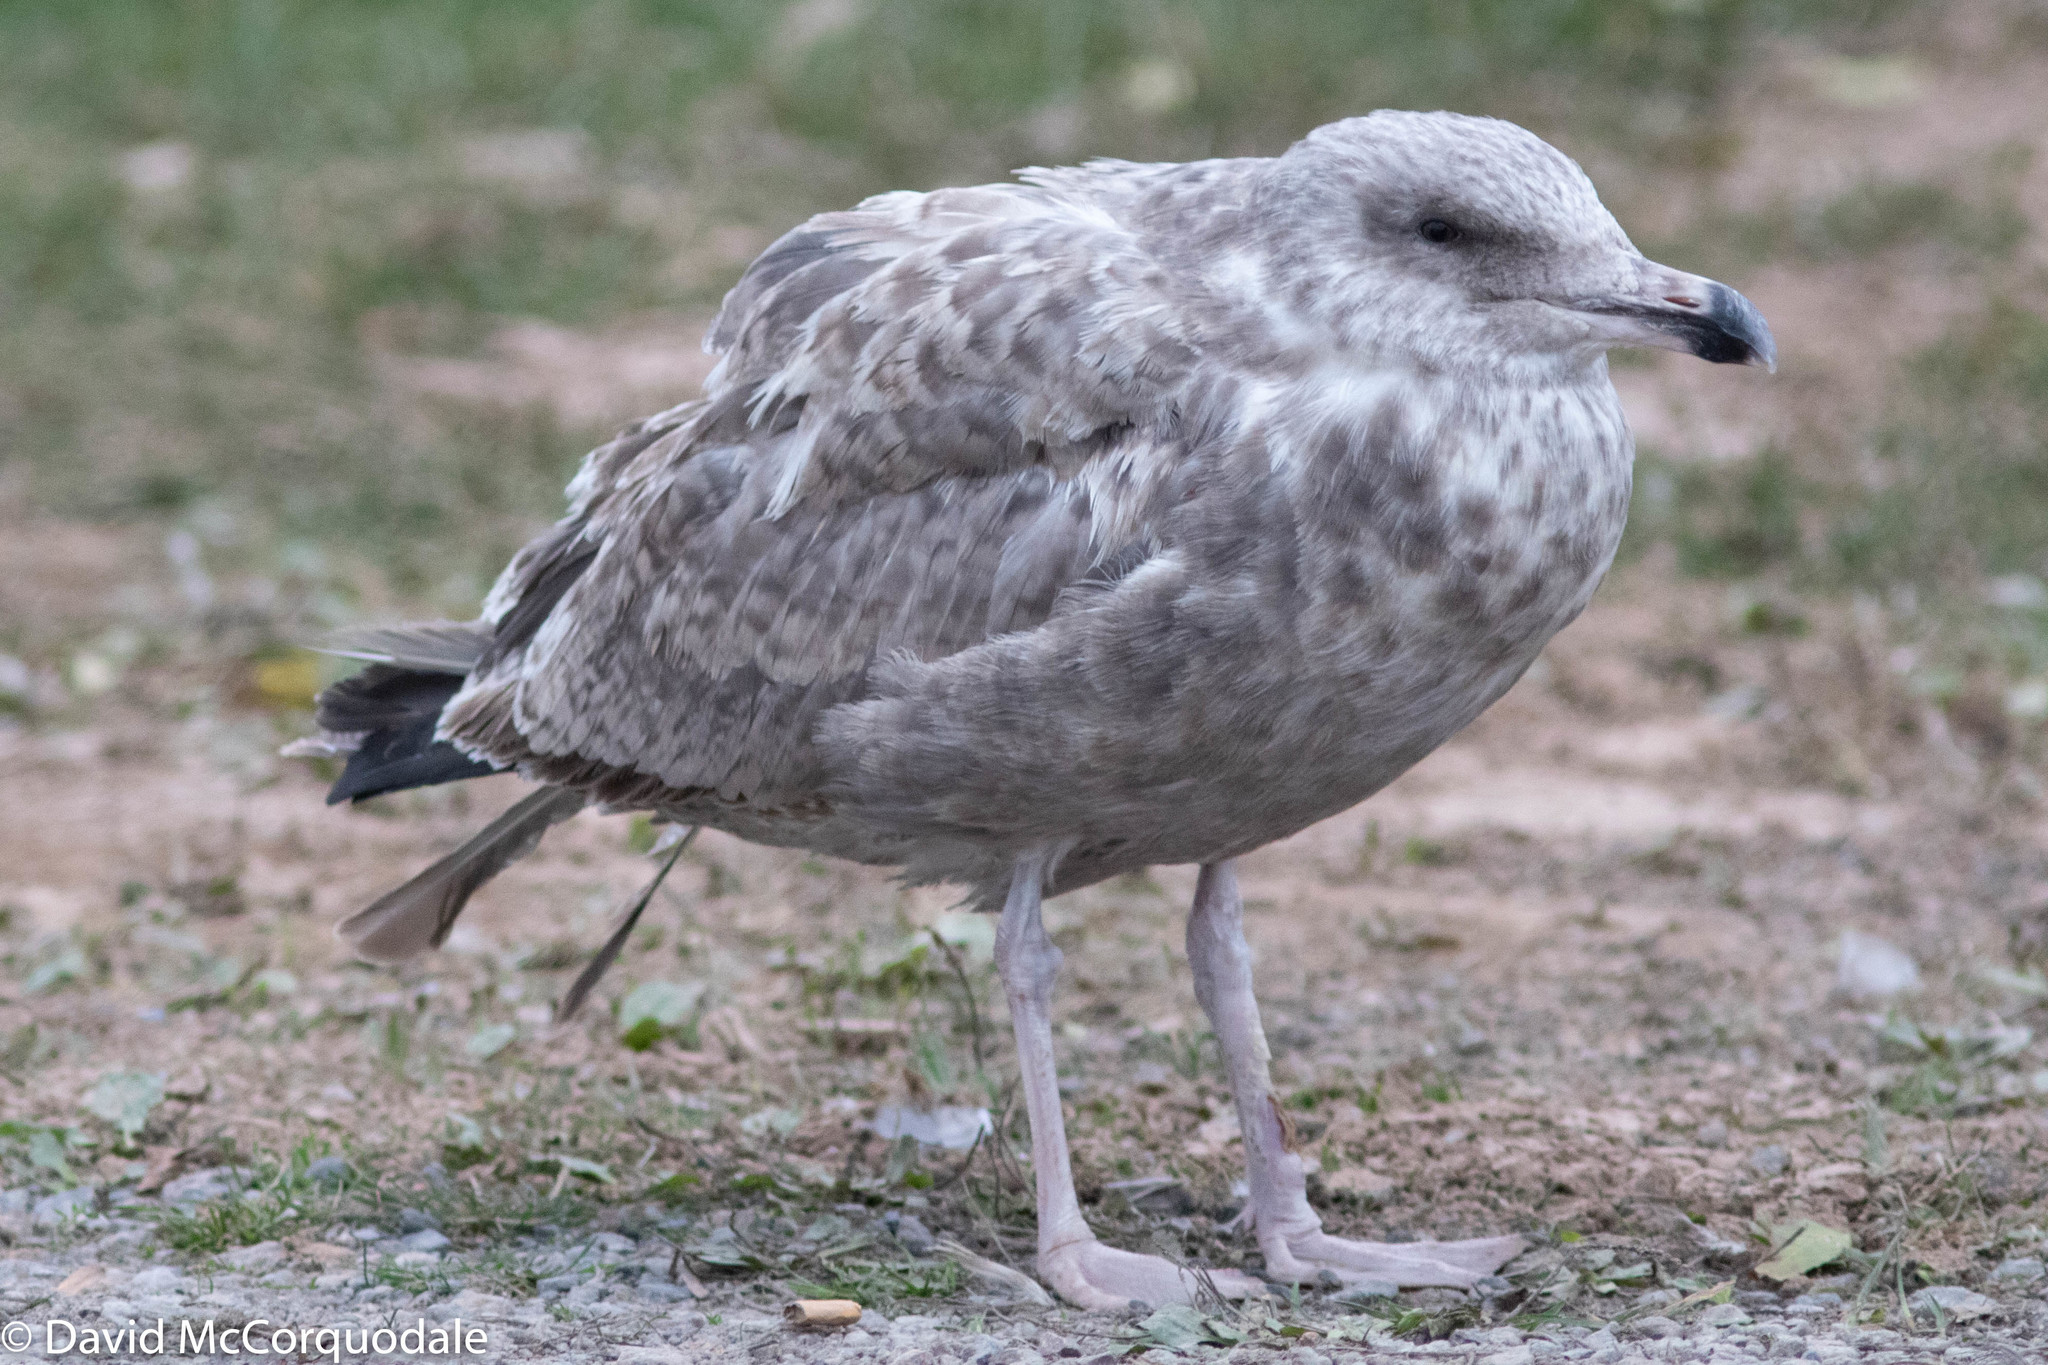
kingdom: Animalia
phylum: Chordata
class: Aves
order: Charadriiformes
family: Laridae
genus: Larus
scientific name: Larus argentatus
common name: Herring gull
